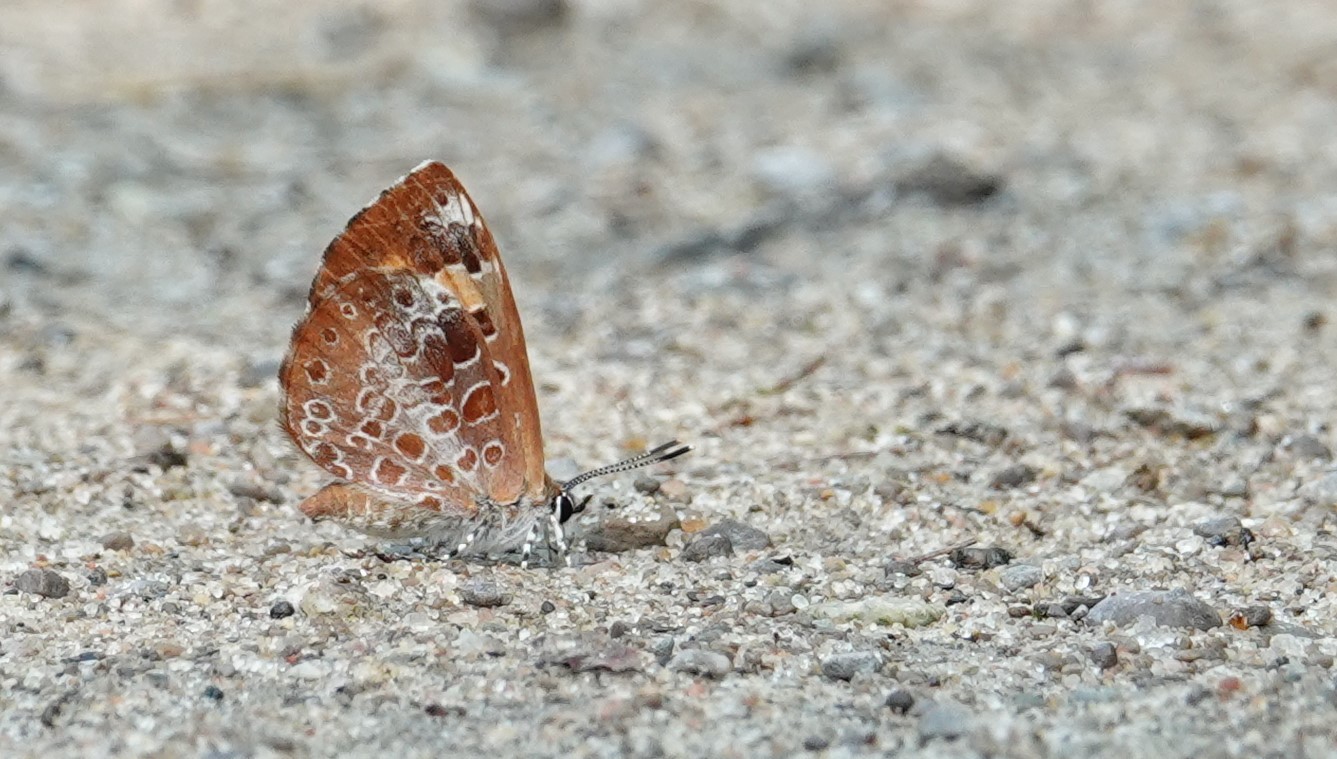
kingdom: Animalia
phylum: Arthropoda
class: Insecta
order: Lepidoptera
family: Lycaenidae
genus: Feniseca
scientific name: Feniseca tarquinius
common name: Harvester
